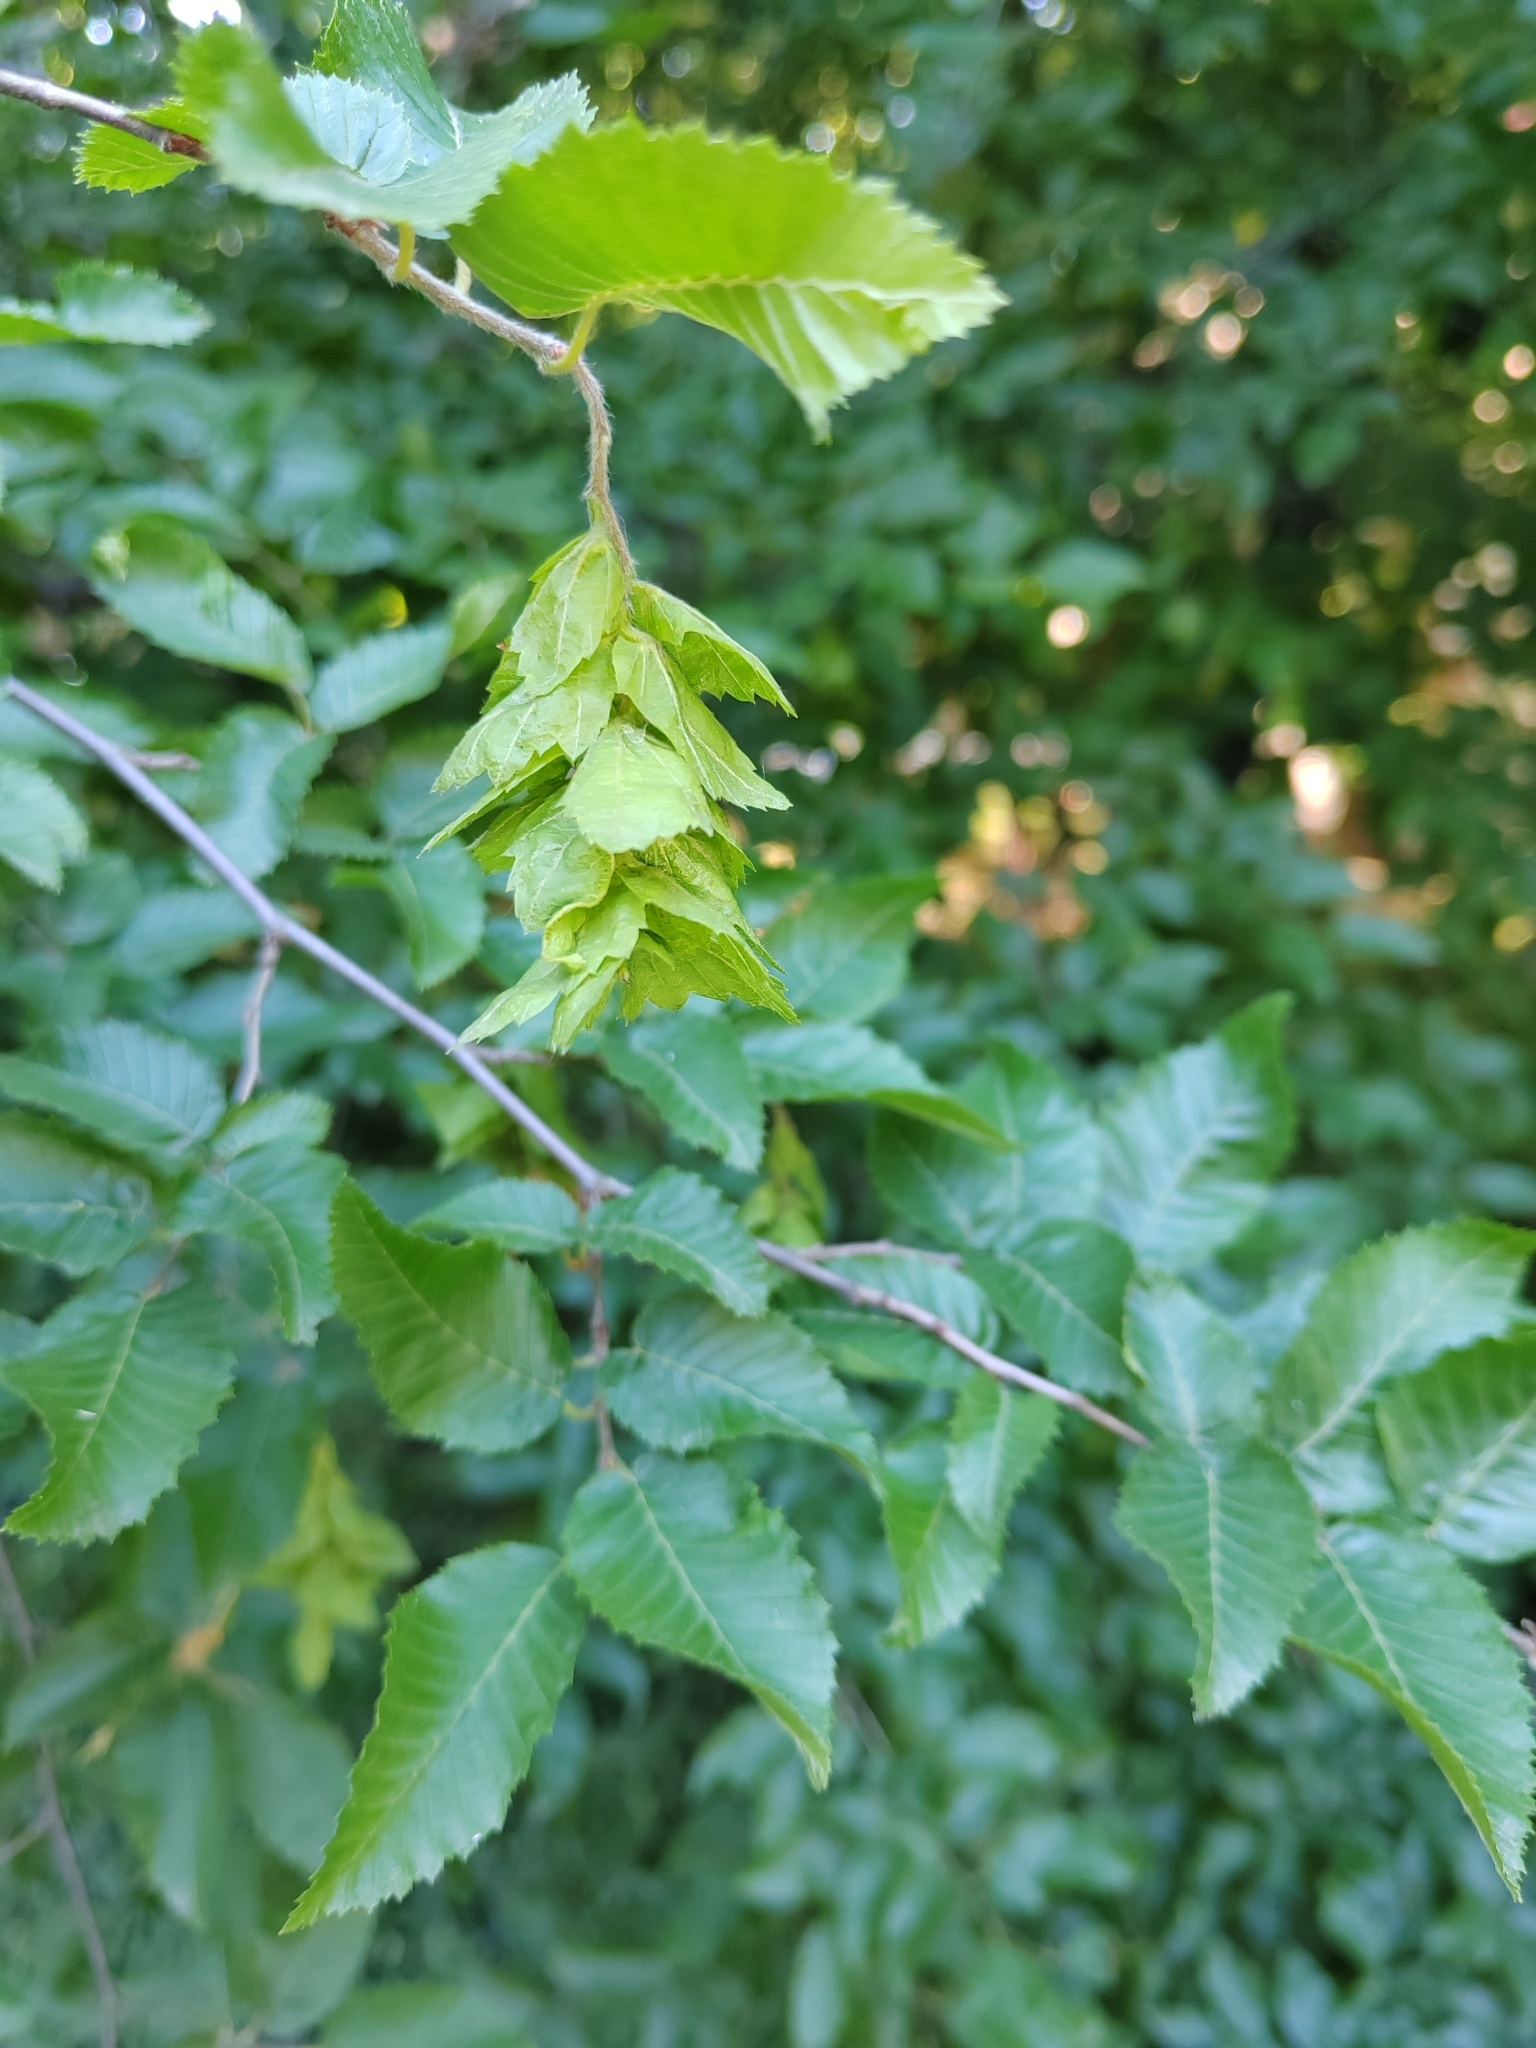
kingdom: Plantae
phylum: Tracheophyta
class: Magnoliopsida
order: Fagales
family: Betulaceae
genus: Carpinus
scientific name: Carpinus orientalis
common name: Eastern hornbeam
